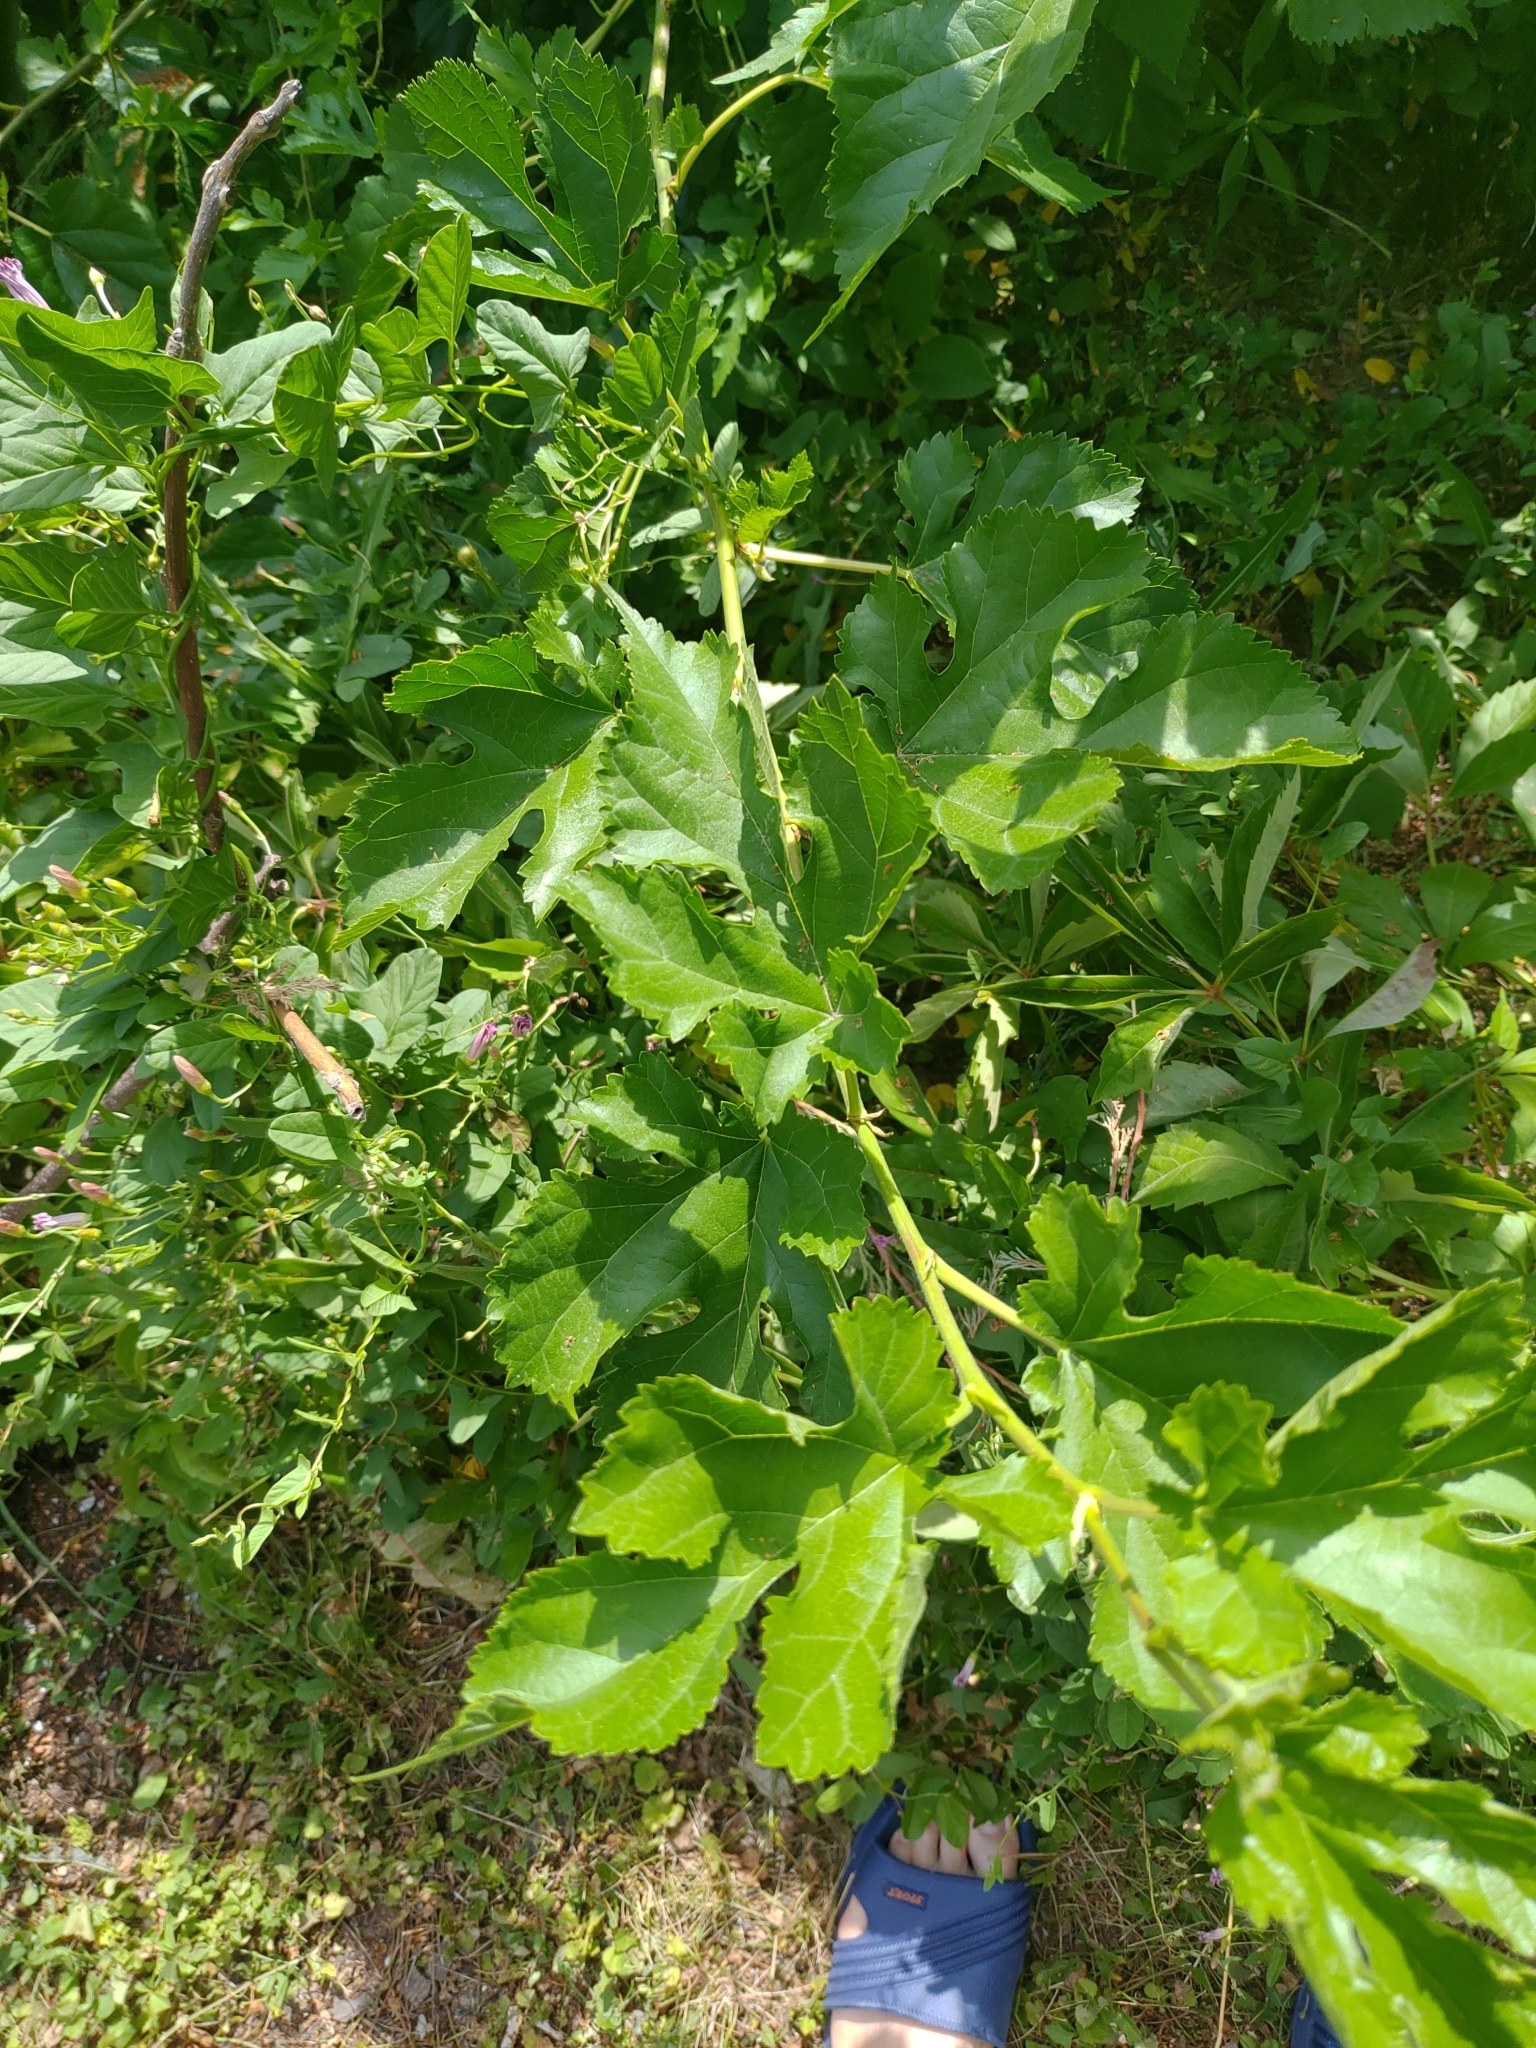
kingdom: Plantae
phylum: Tracheophyta
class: Magnoliopsida
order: Rosales
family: Moraceae
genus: Morus
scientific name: Morus alba
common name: White mulberry
